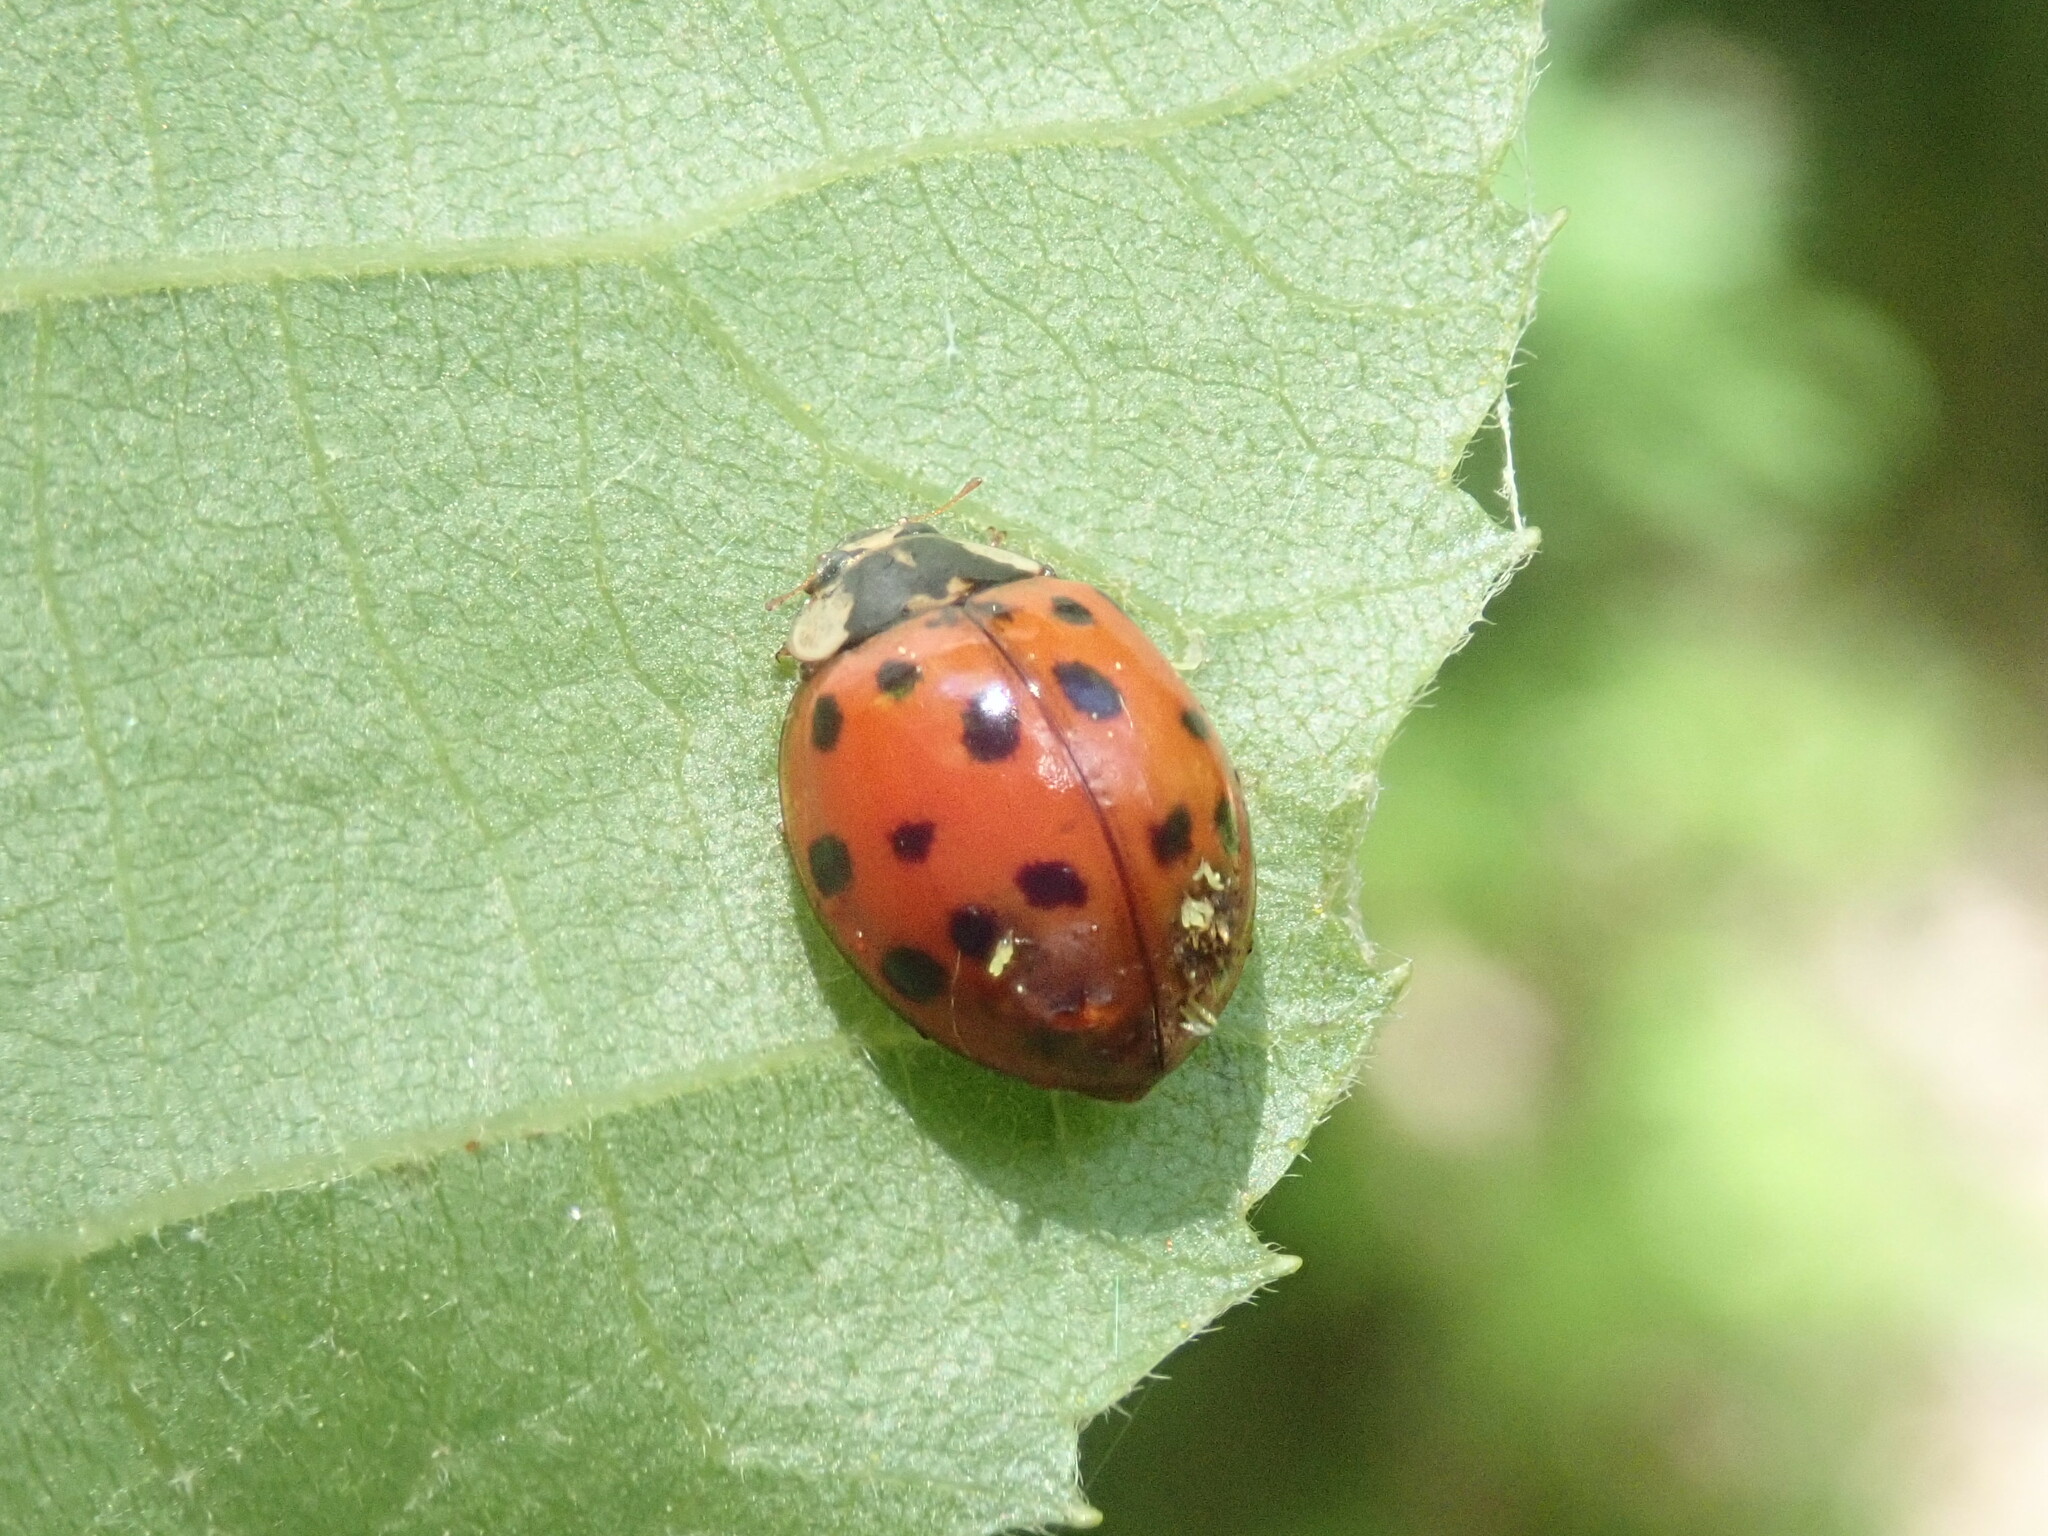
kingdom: Fungi
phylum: Ascomycota
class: Laboulbeniomycetes
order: Laboulbeniales
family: Laboulbeniaceae
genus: Hesperomyces
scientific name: Hesperomyces harmoniae
